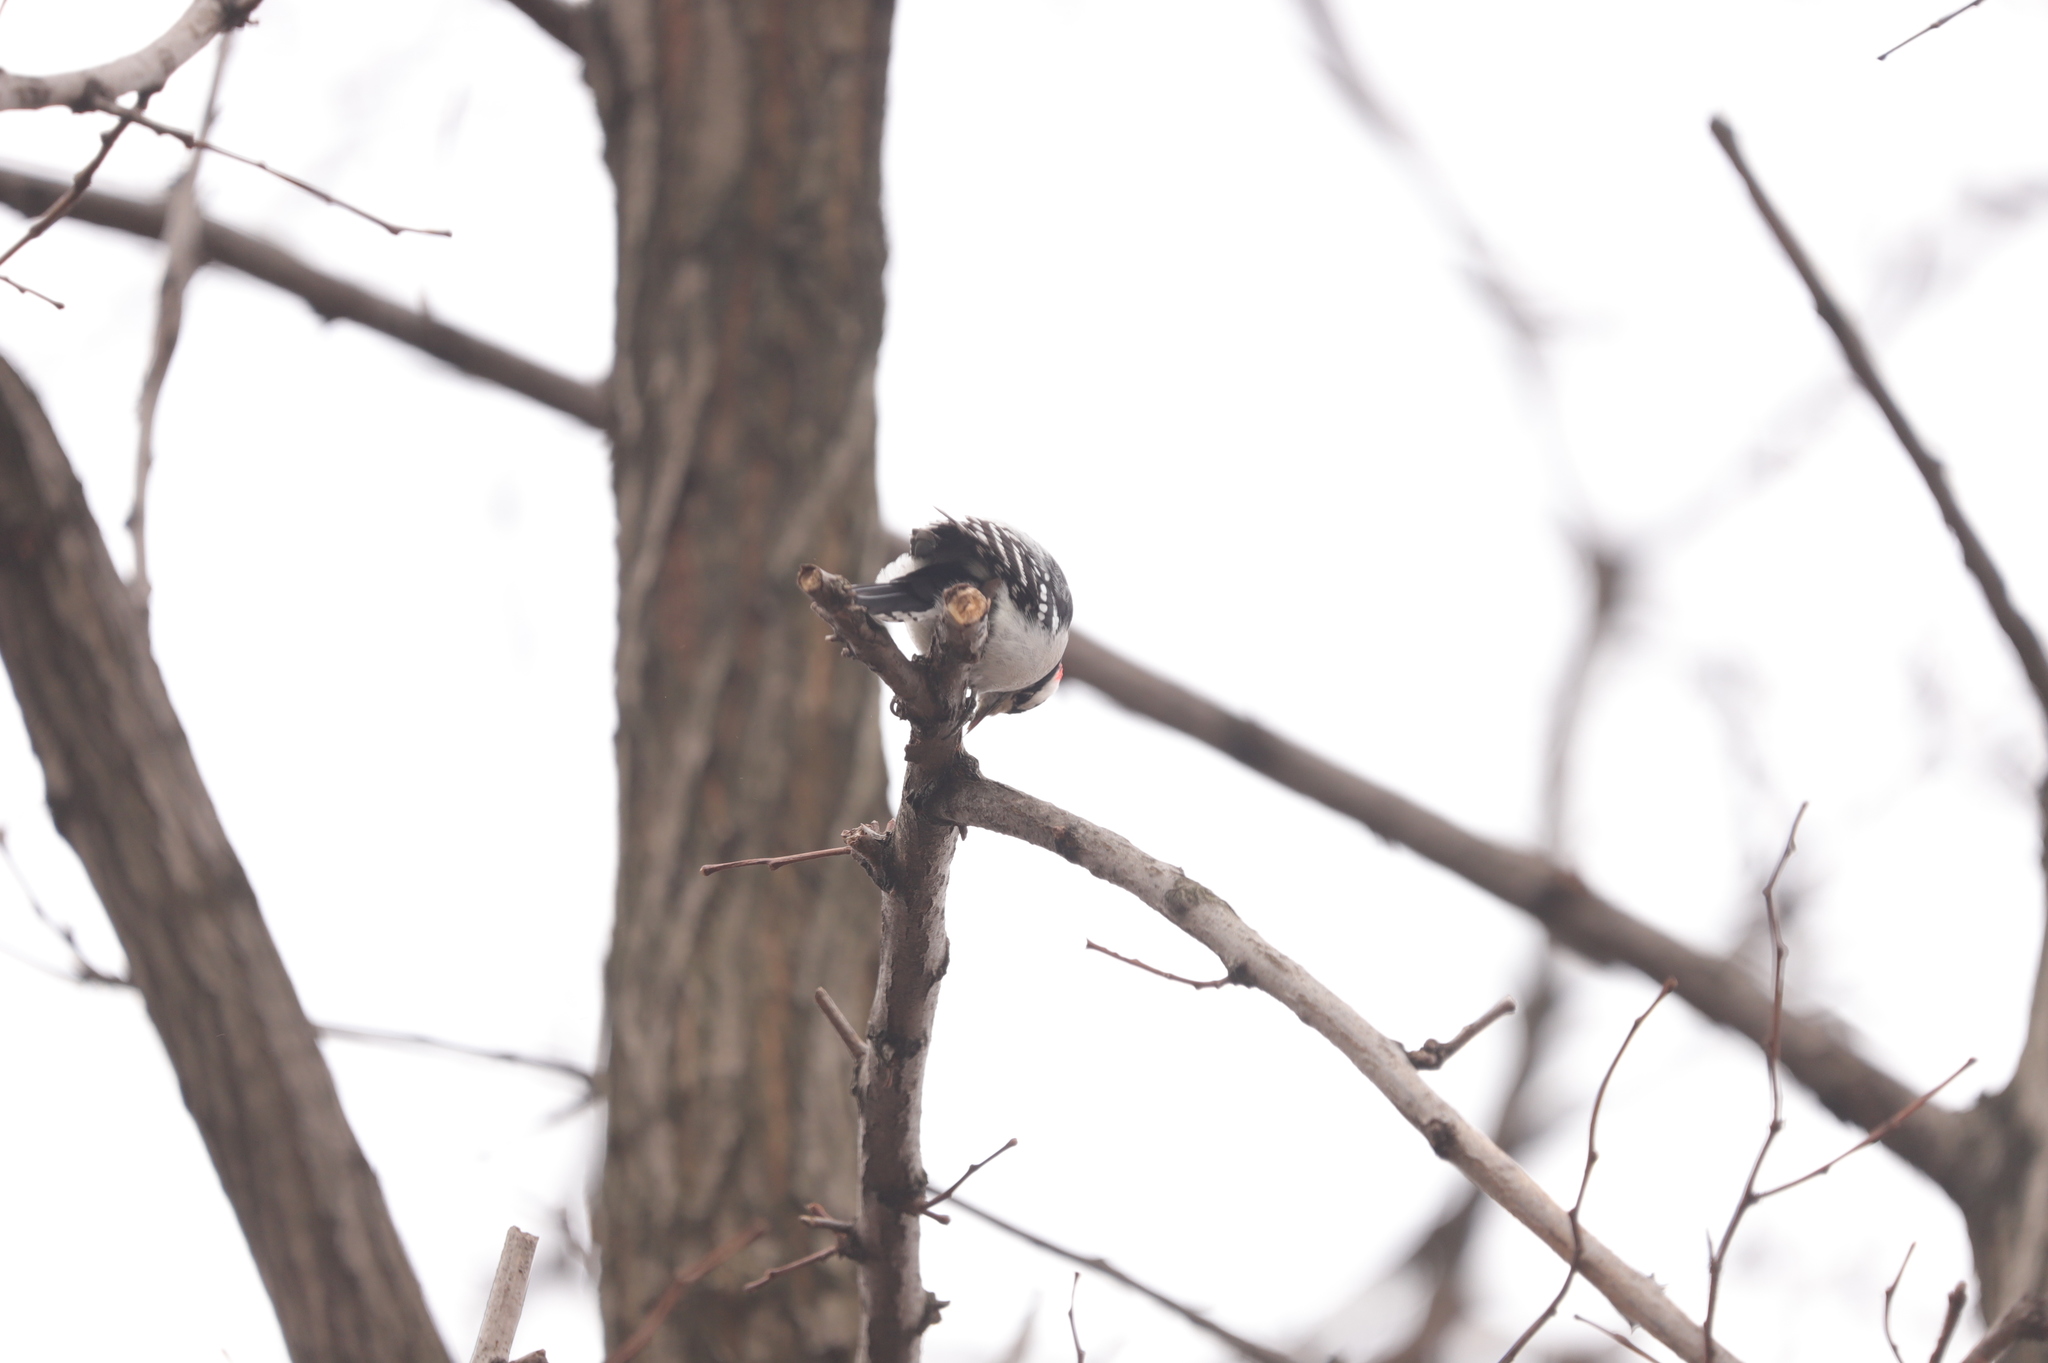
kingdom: Animalia
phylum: Chordata
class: Aves
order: Piciformes
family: Picidae
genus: Dryobates
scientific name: Dryobates pubescens
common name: Downy woodpecker
